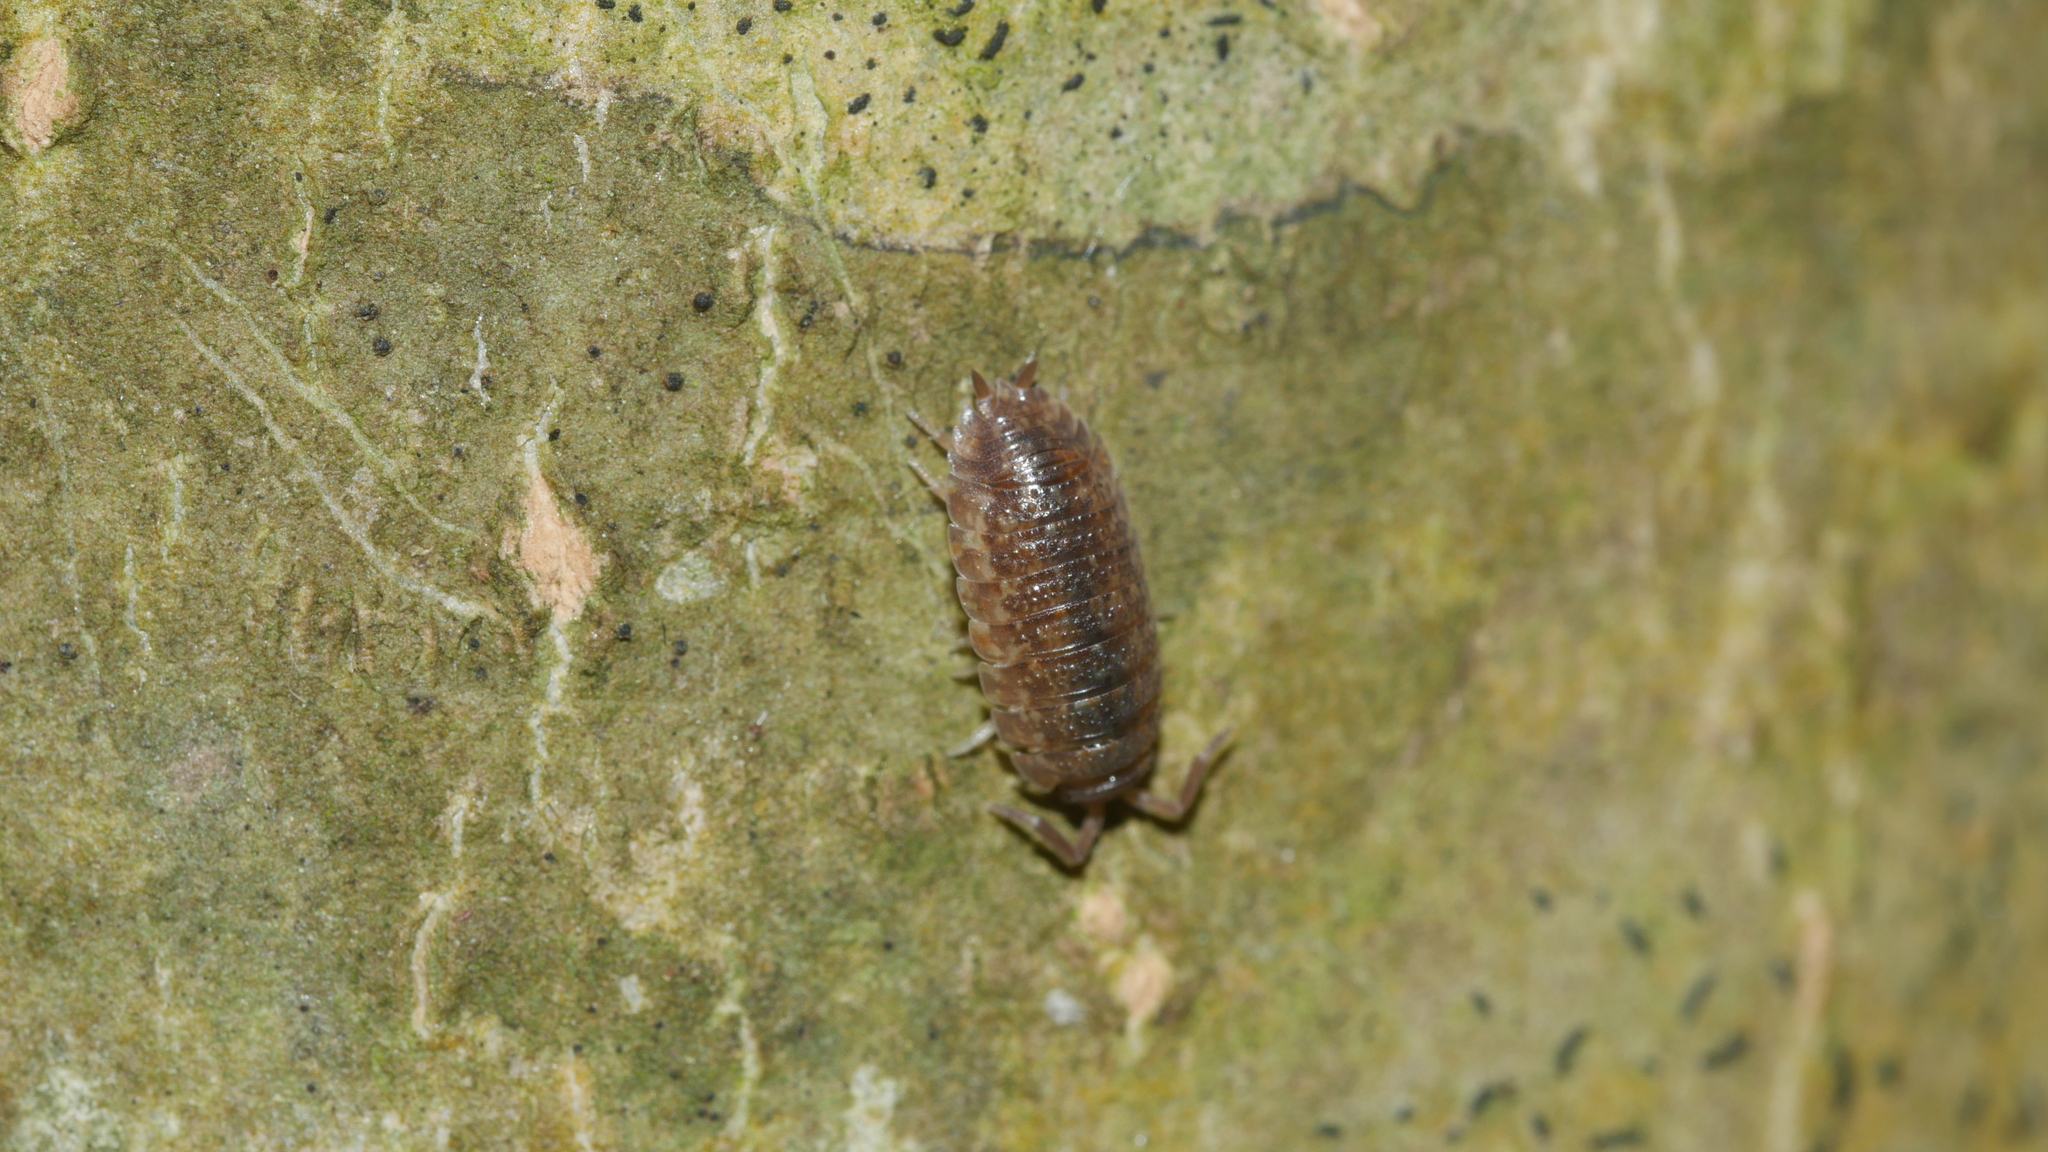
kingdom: Animalia
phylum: Arthropoda
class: Malacostraca
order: Isopoda
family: Porcellionidae
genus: Porcellio
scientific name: Porcellio scaber
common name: Common rough woodlouse
